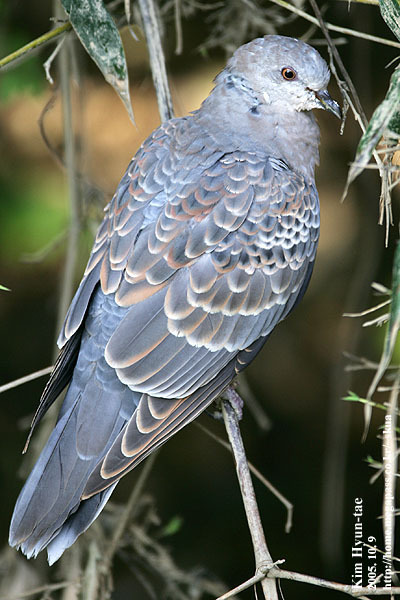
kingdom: Animalia
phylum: Chordata
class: Aves
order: Columbiformes
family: Columbidae
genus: Streptopelia
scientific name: Streptopelia orientalis
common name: Oriental turtle dove
